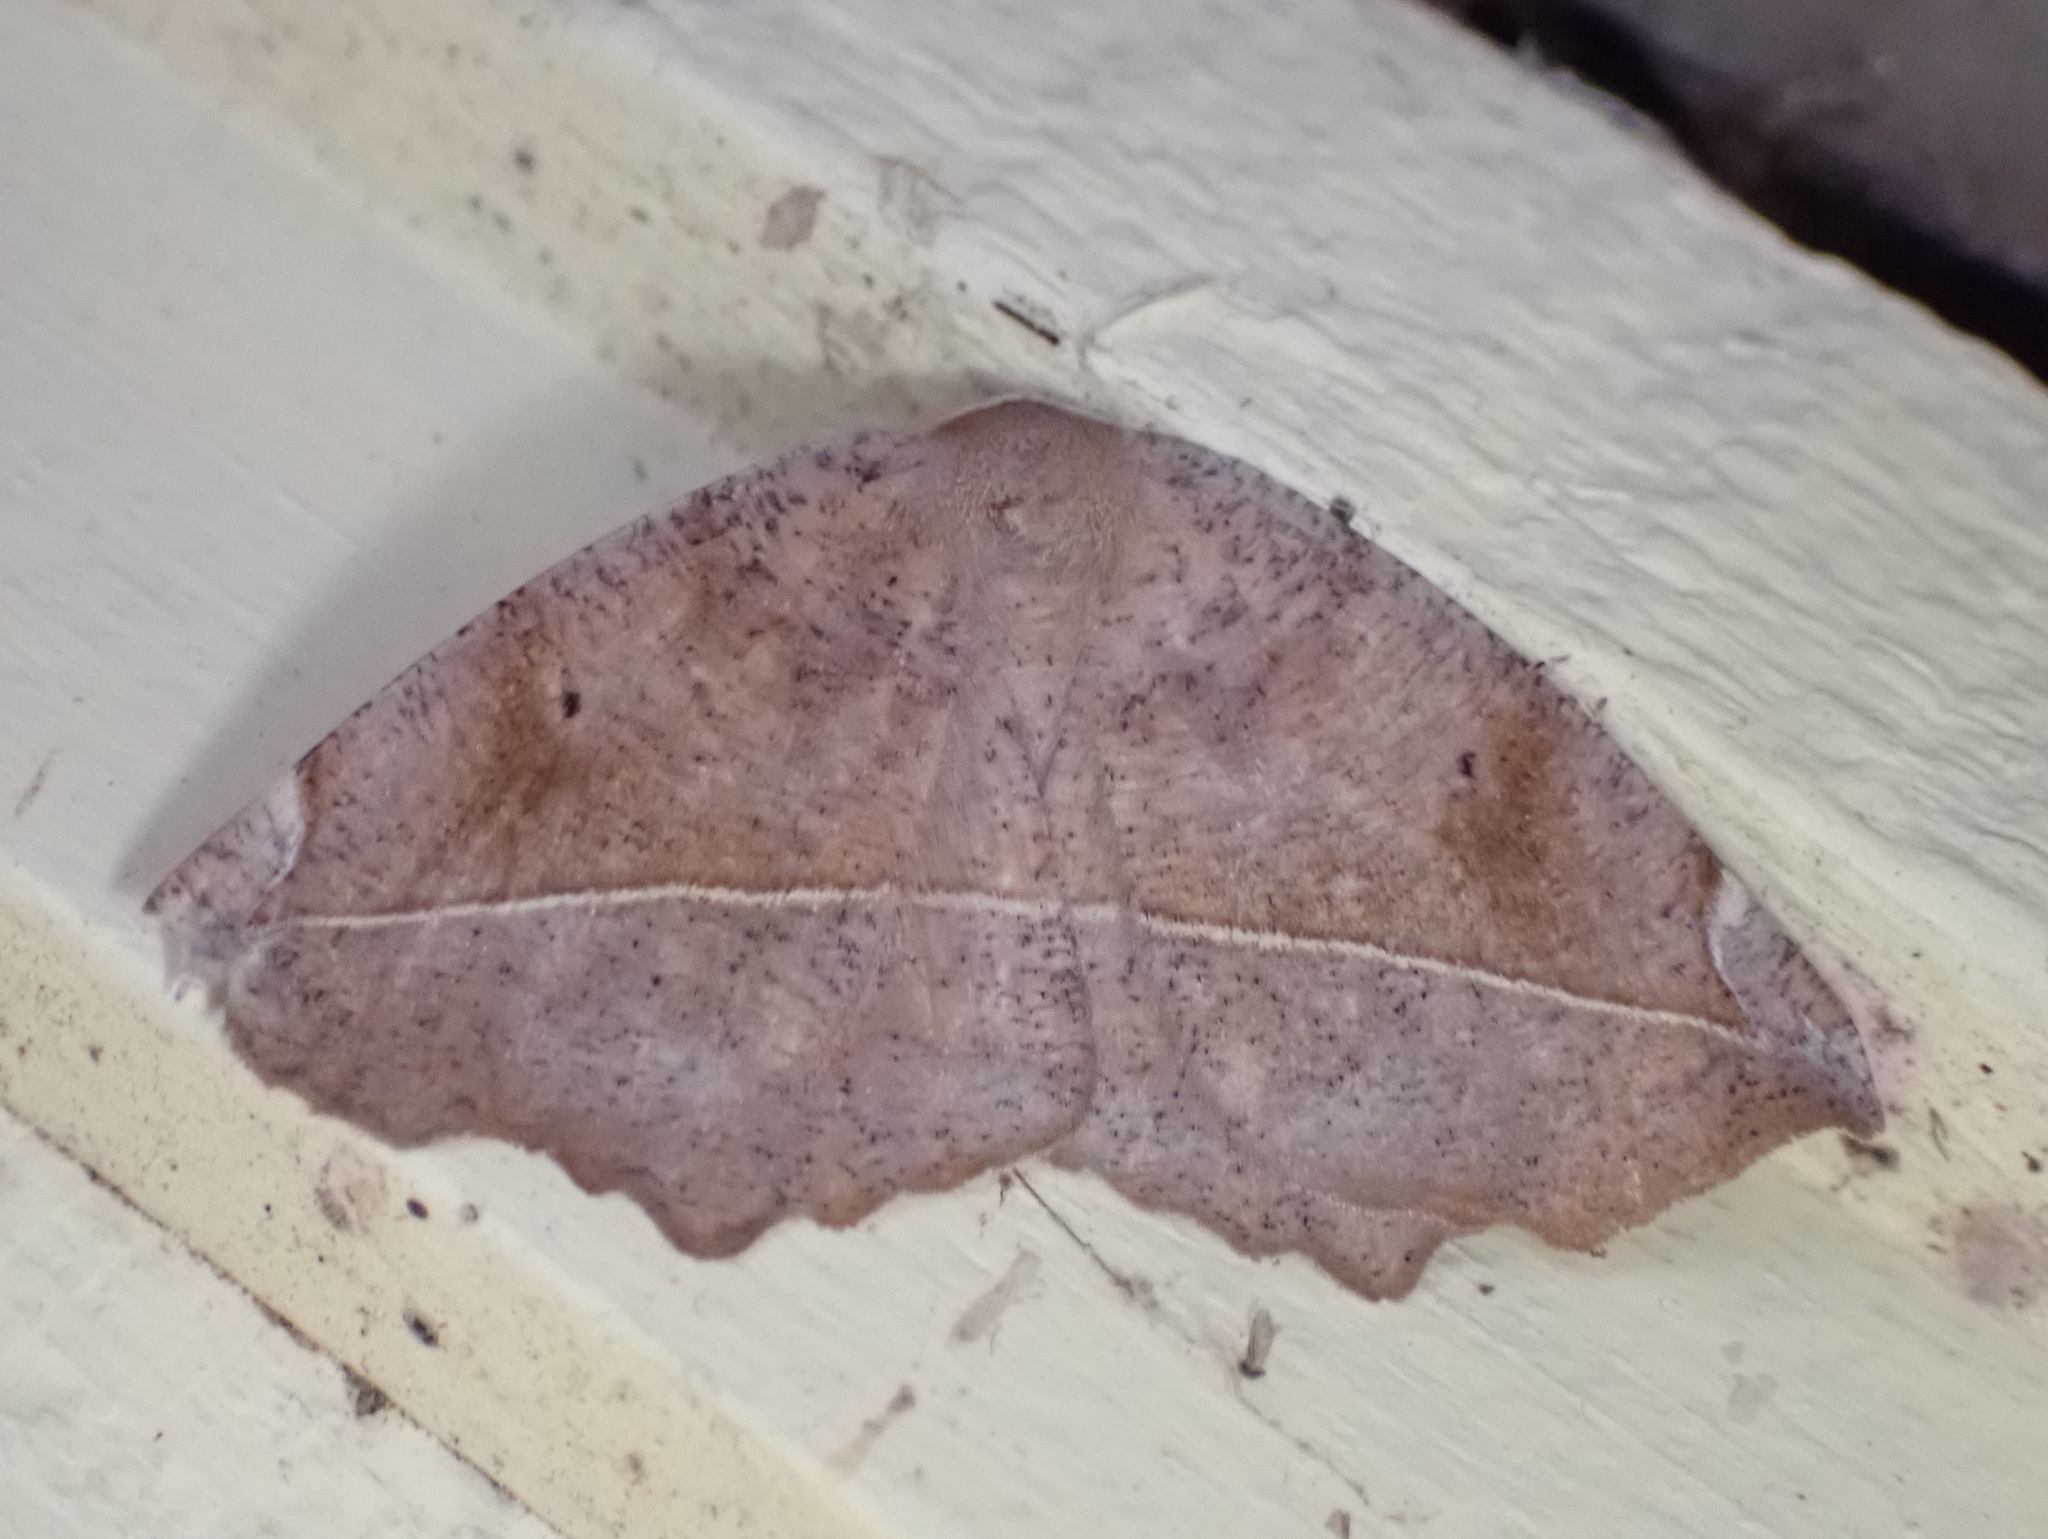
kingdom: Animalia
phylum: Arthropoda
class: Insecta
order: Lepidoptera
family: Geometridae
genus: Eutrapela
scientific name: Eutrapela clemataria
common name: Curved-toothed geometer
